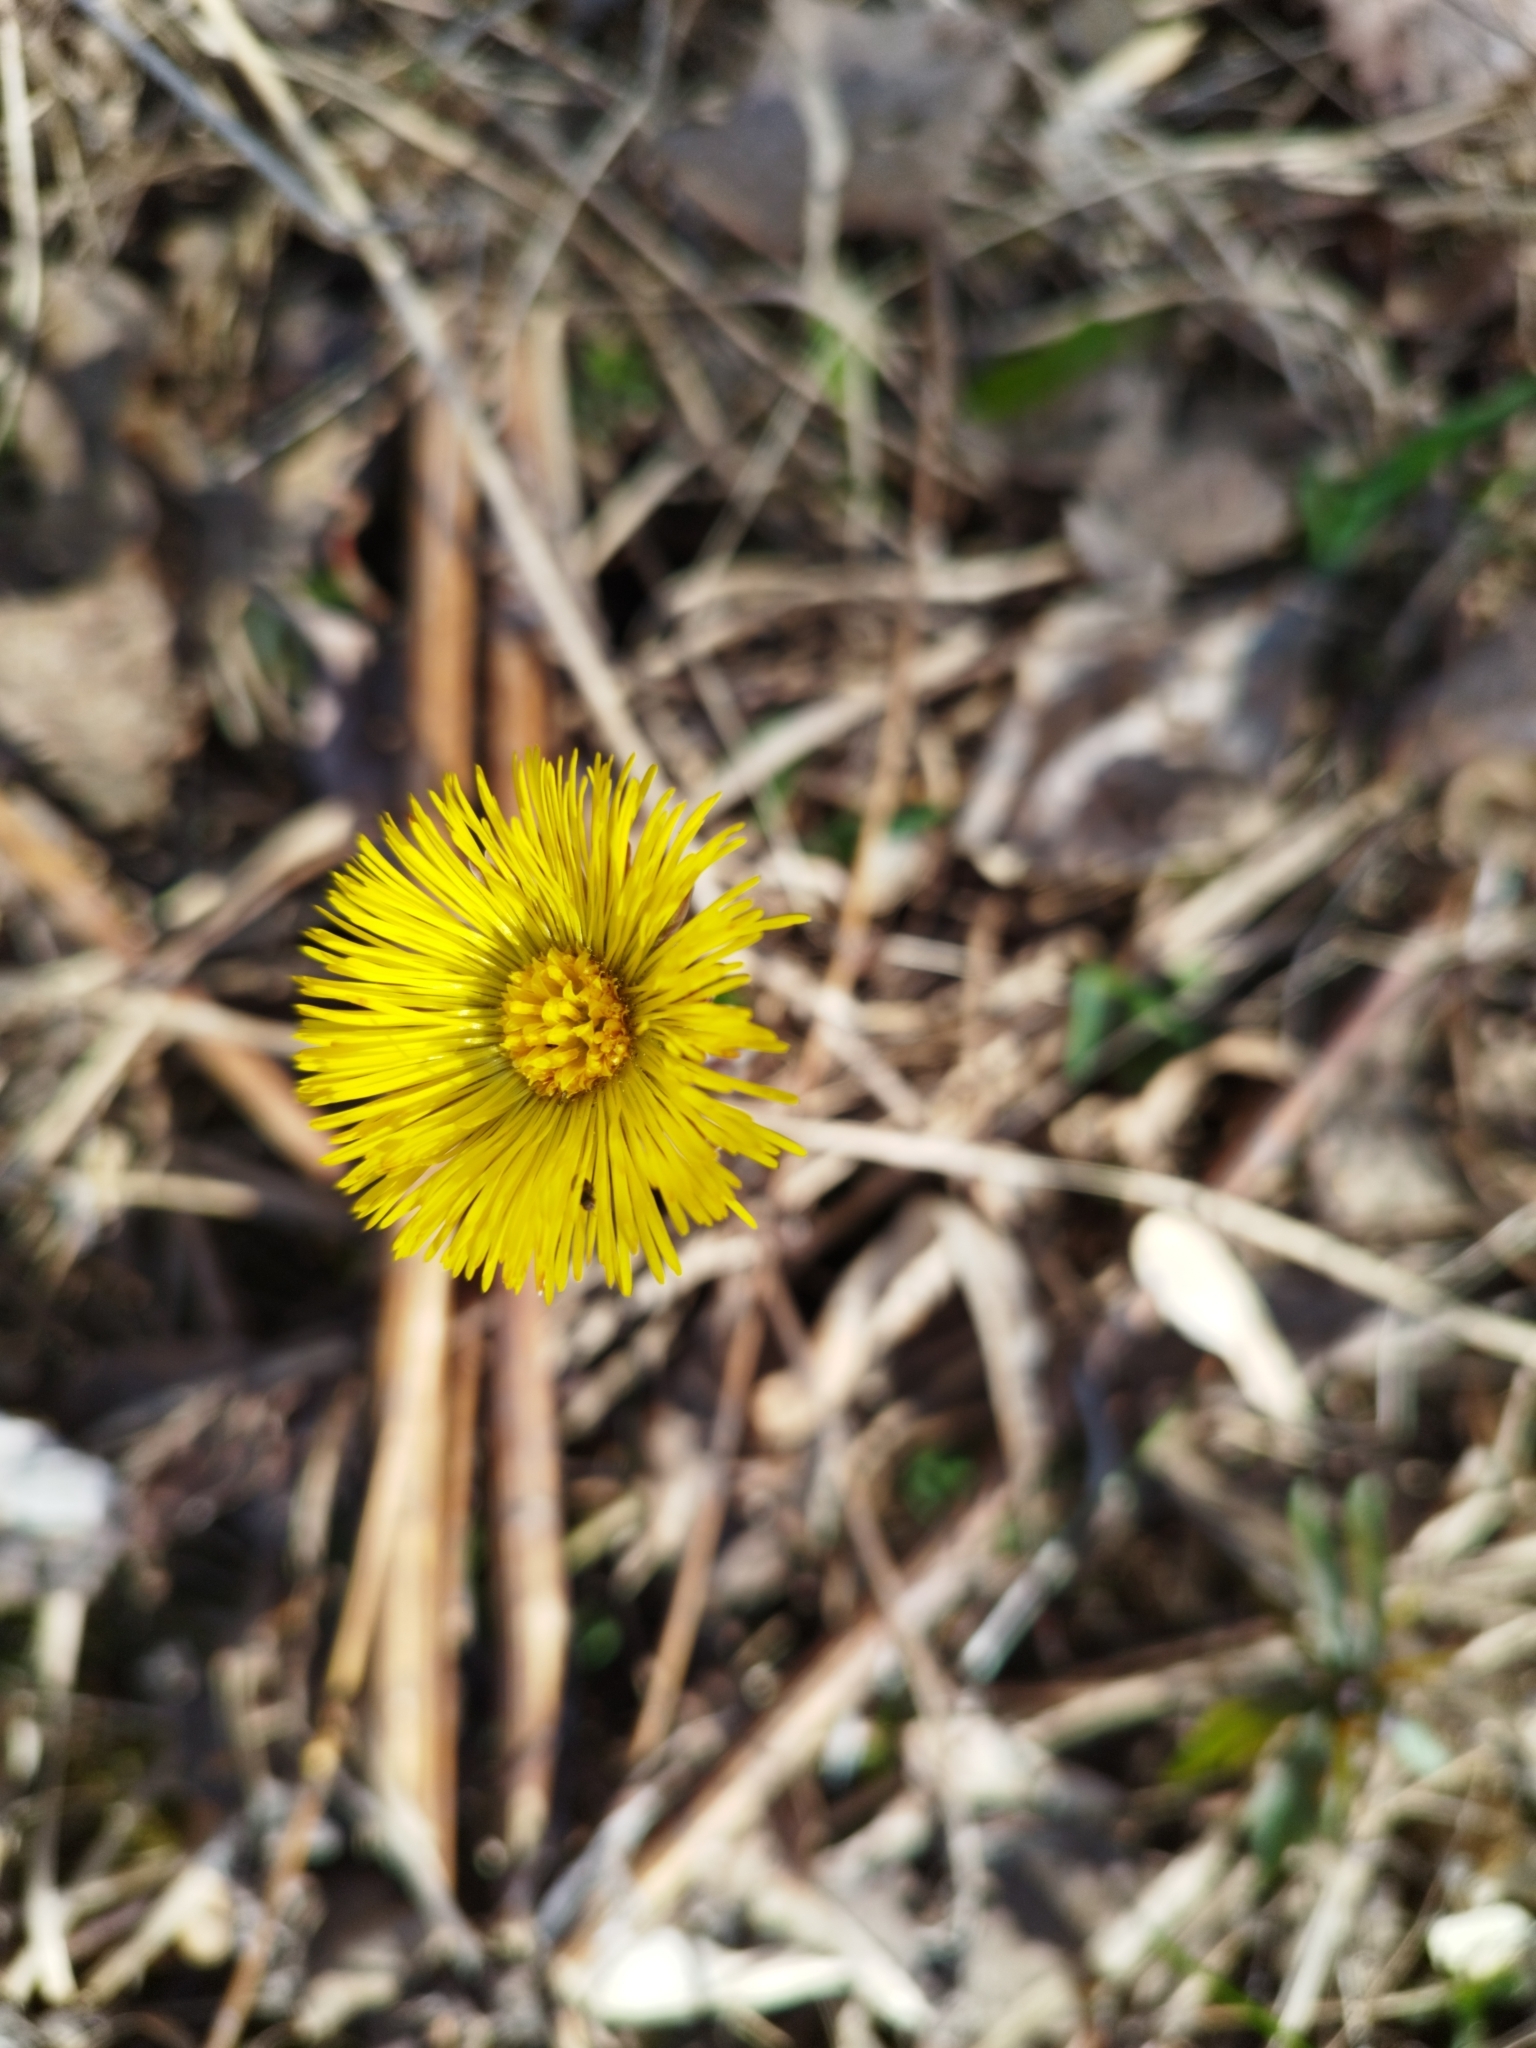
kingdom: Plantae
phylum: Tracheophyta
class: Magnoliopsida
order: Asterales
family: Asteraceae
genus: Tussilago
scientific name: Tussilago farfara
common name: Coltsfoot
